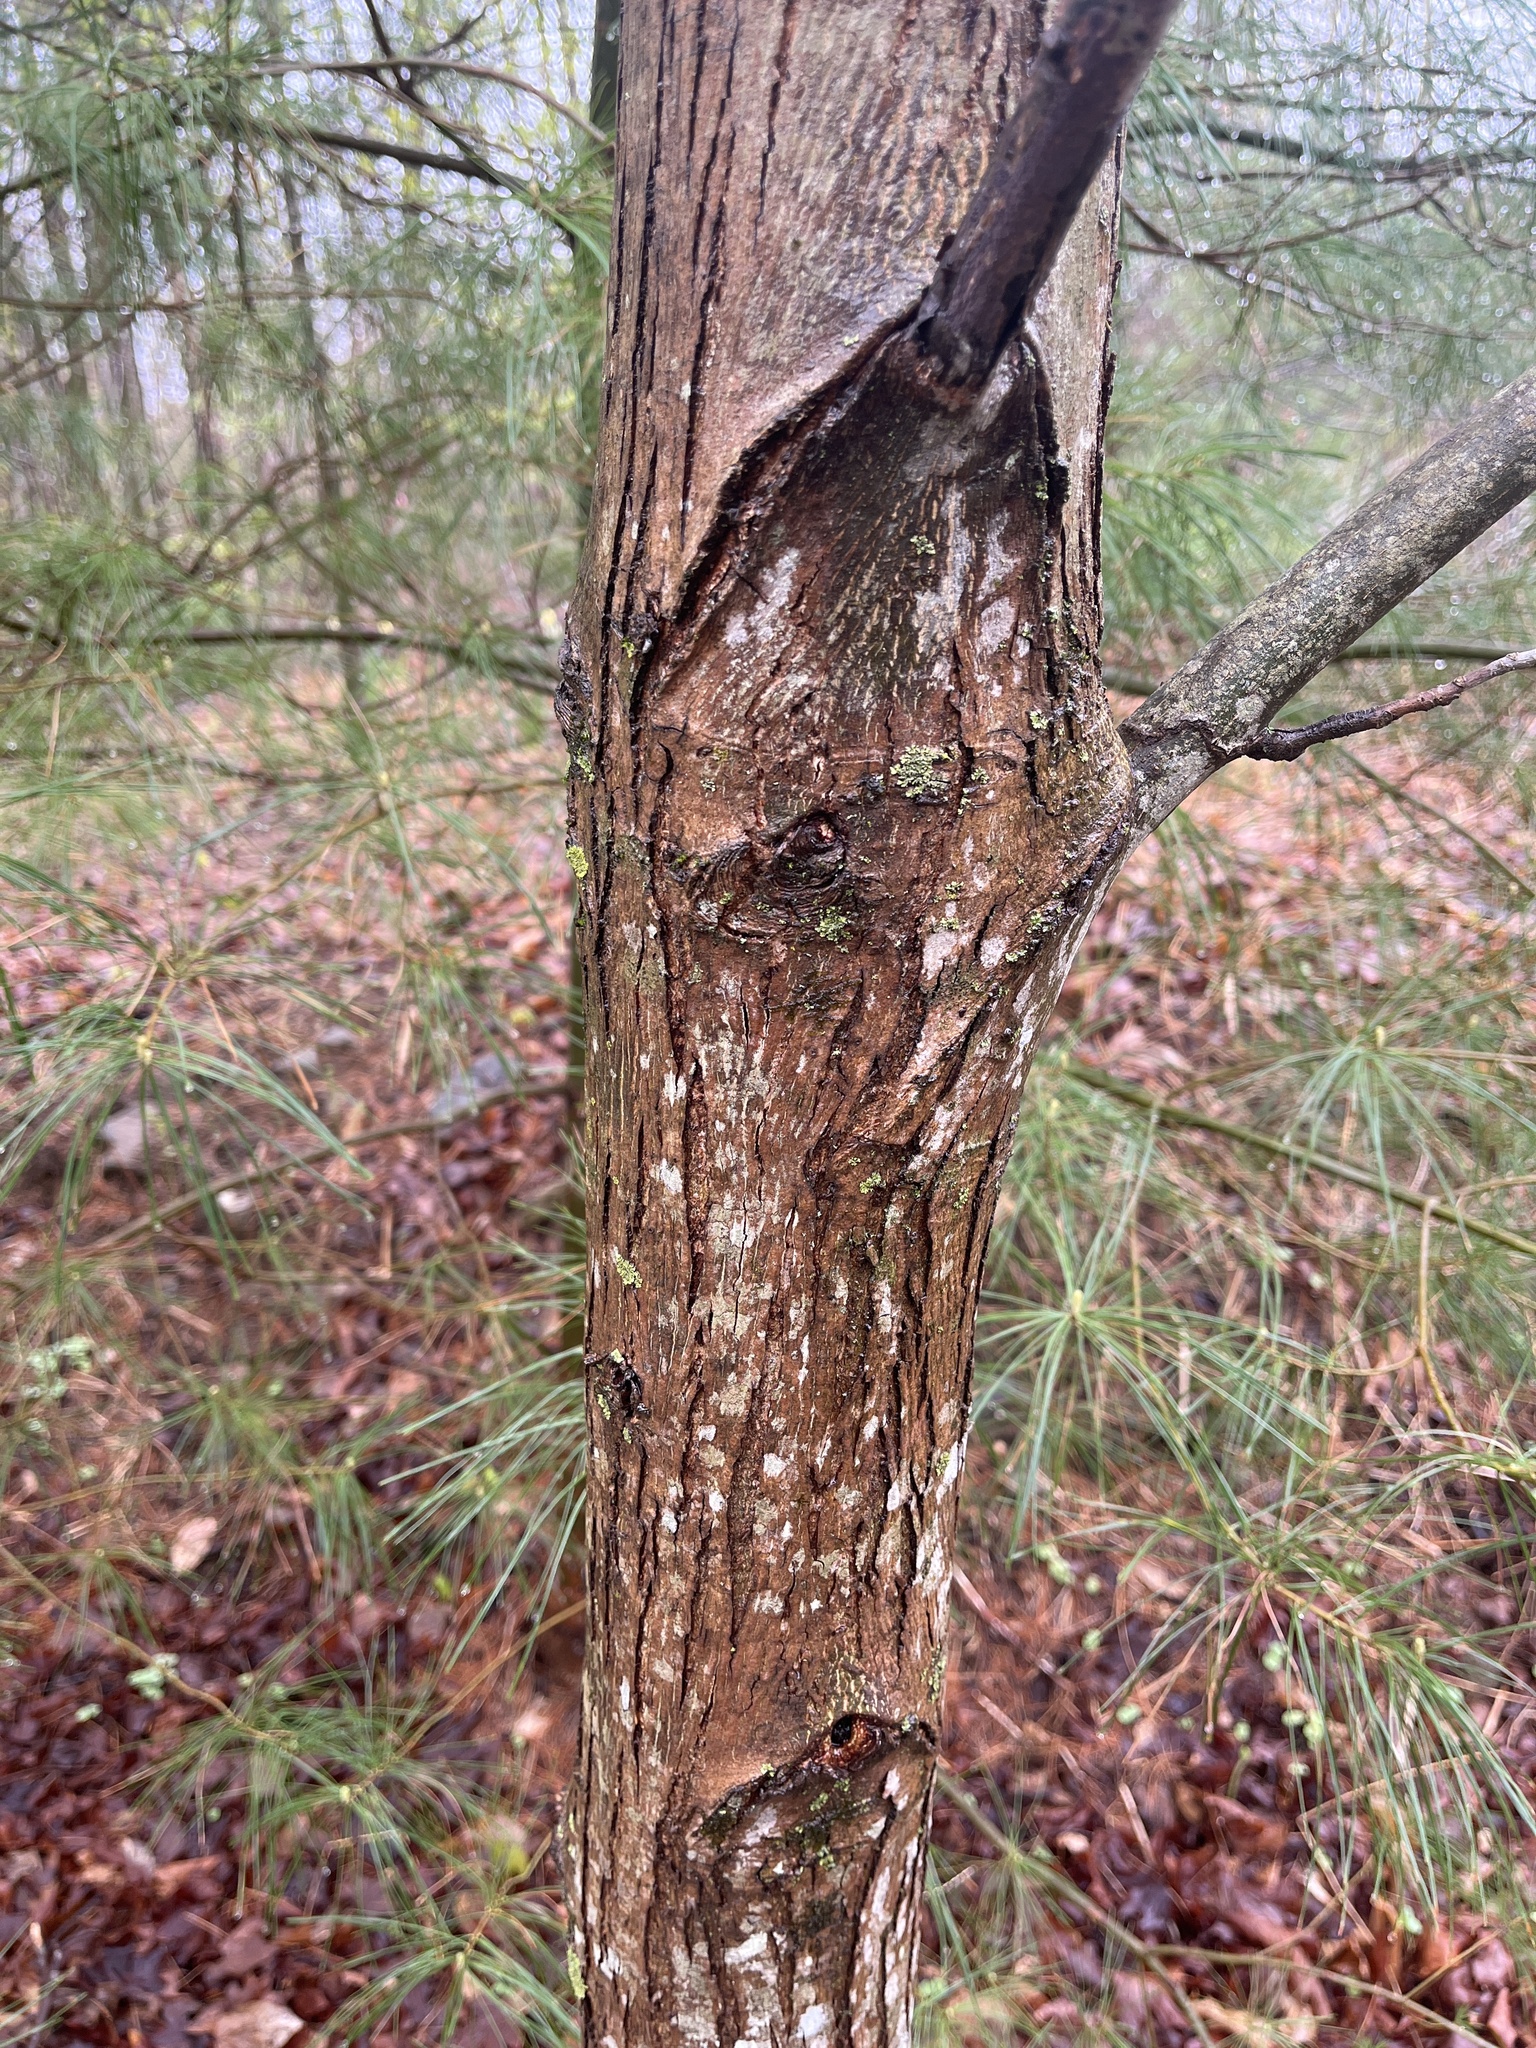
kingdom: Plantae
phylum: Tracheophyta
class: Magnoliopsida
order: Fagales
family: Juglandaceae
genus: Carya
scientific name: Carya cordiformis
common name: Bitternut hickory
